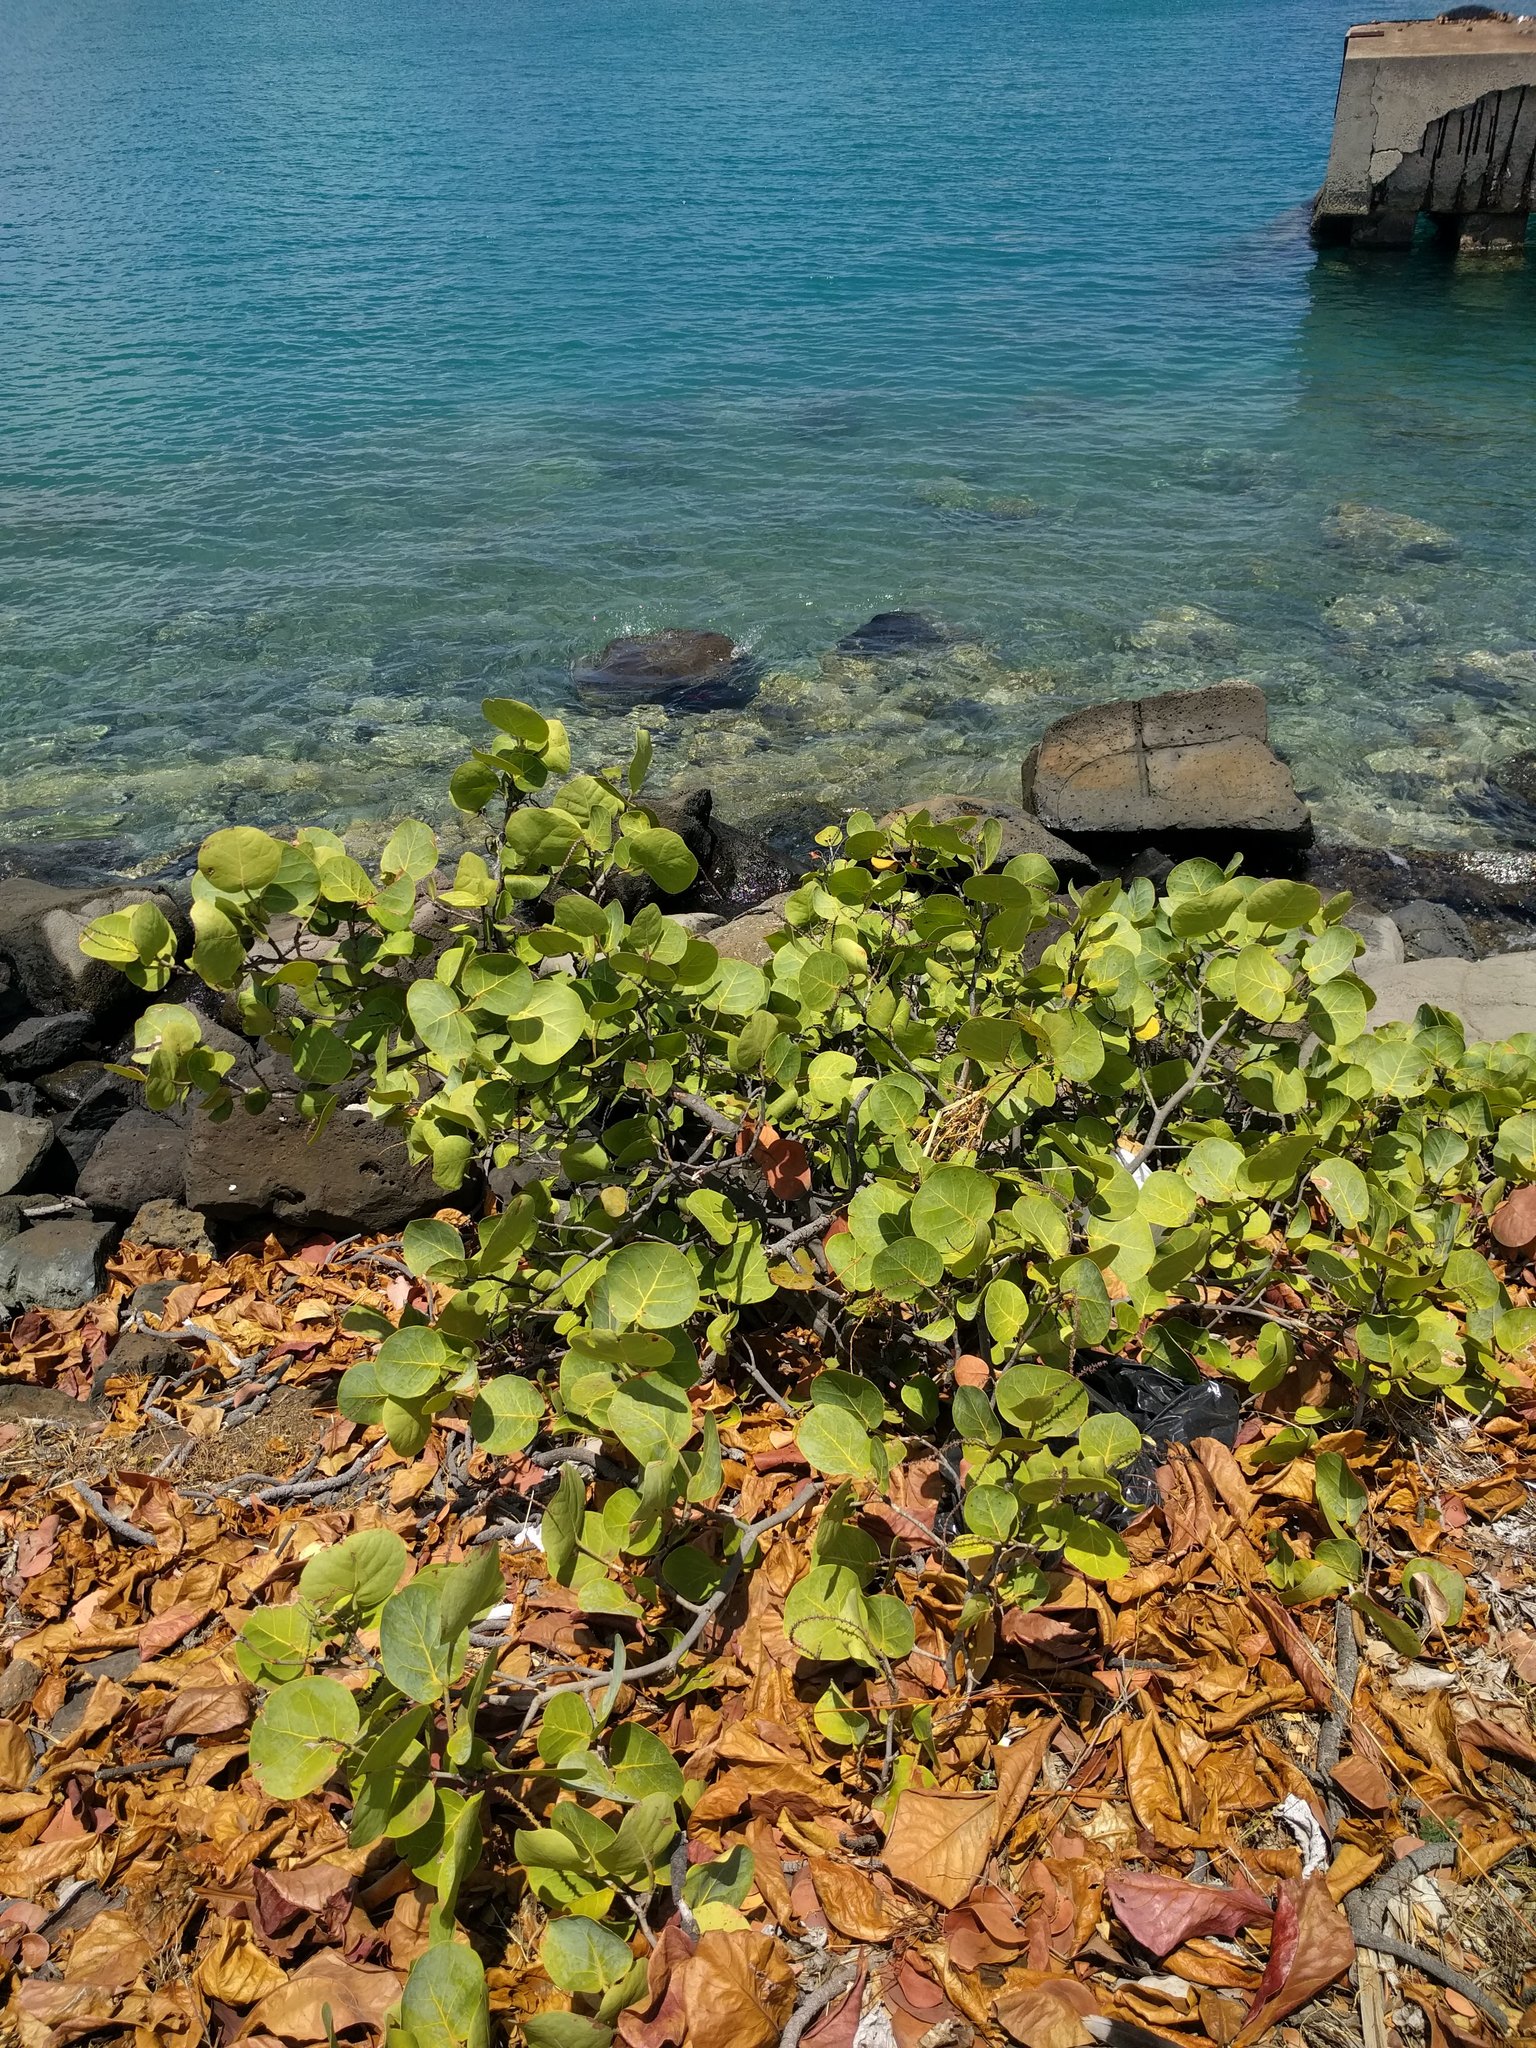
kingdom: Plantae
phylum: Tracheophyta
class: Magnoliopsida
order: Caryophyllales
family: Polygonaceae
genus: Coccoloba
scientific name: Coccoloba uvifera
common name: Seagrape
